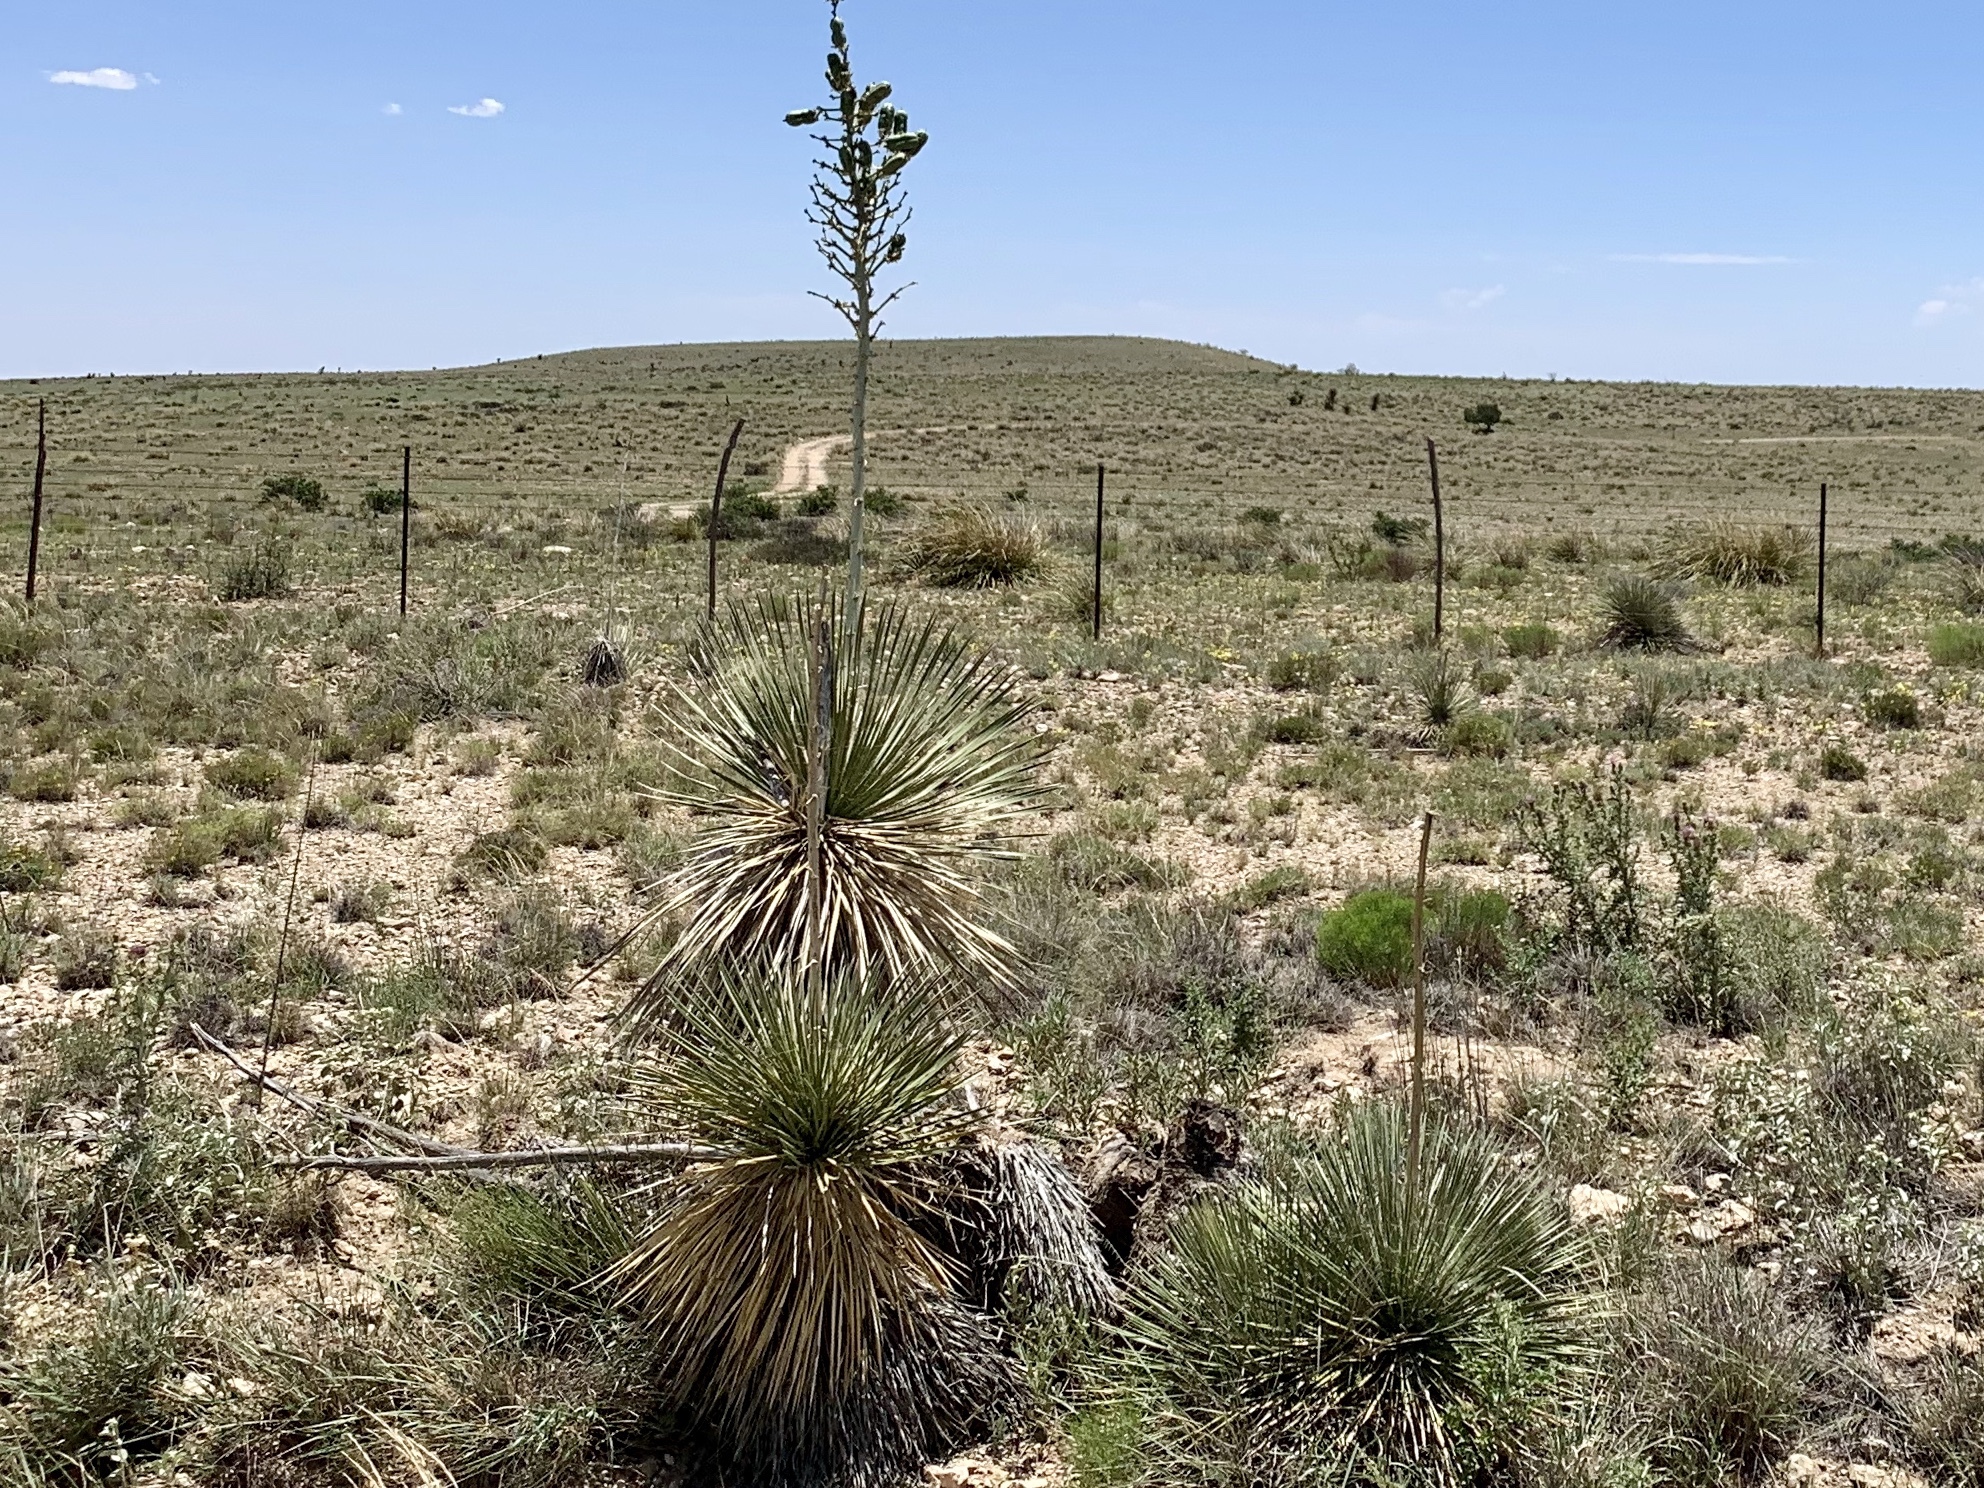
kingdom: Plantae
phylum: Tracheophyta
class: Liliopsida
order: Asparagales
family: Asparagaceae
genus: Yucca
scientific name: Yucca elata
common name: Palmella
